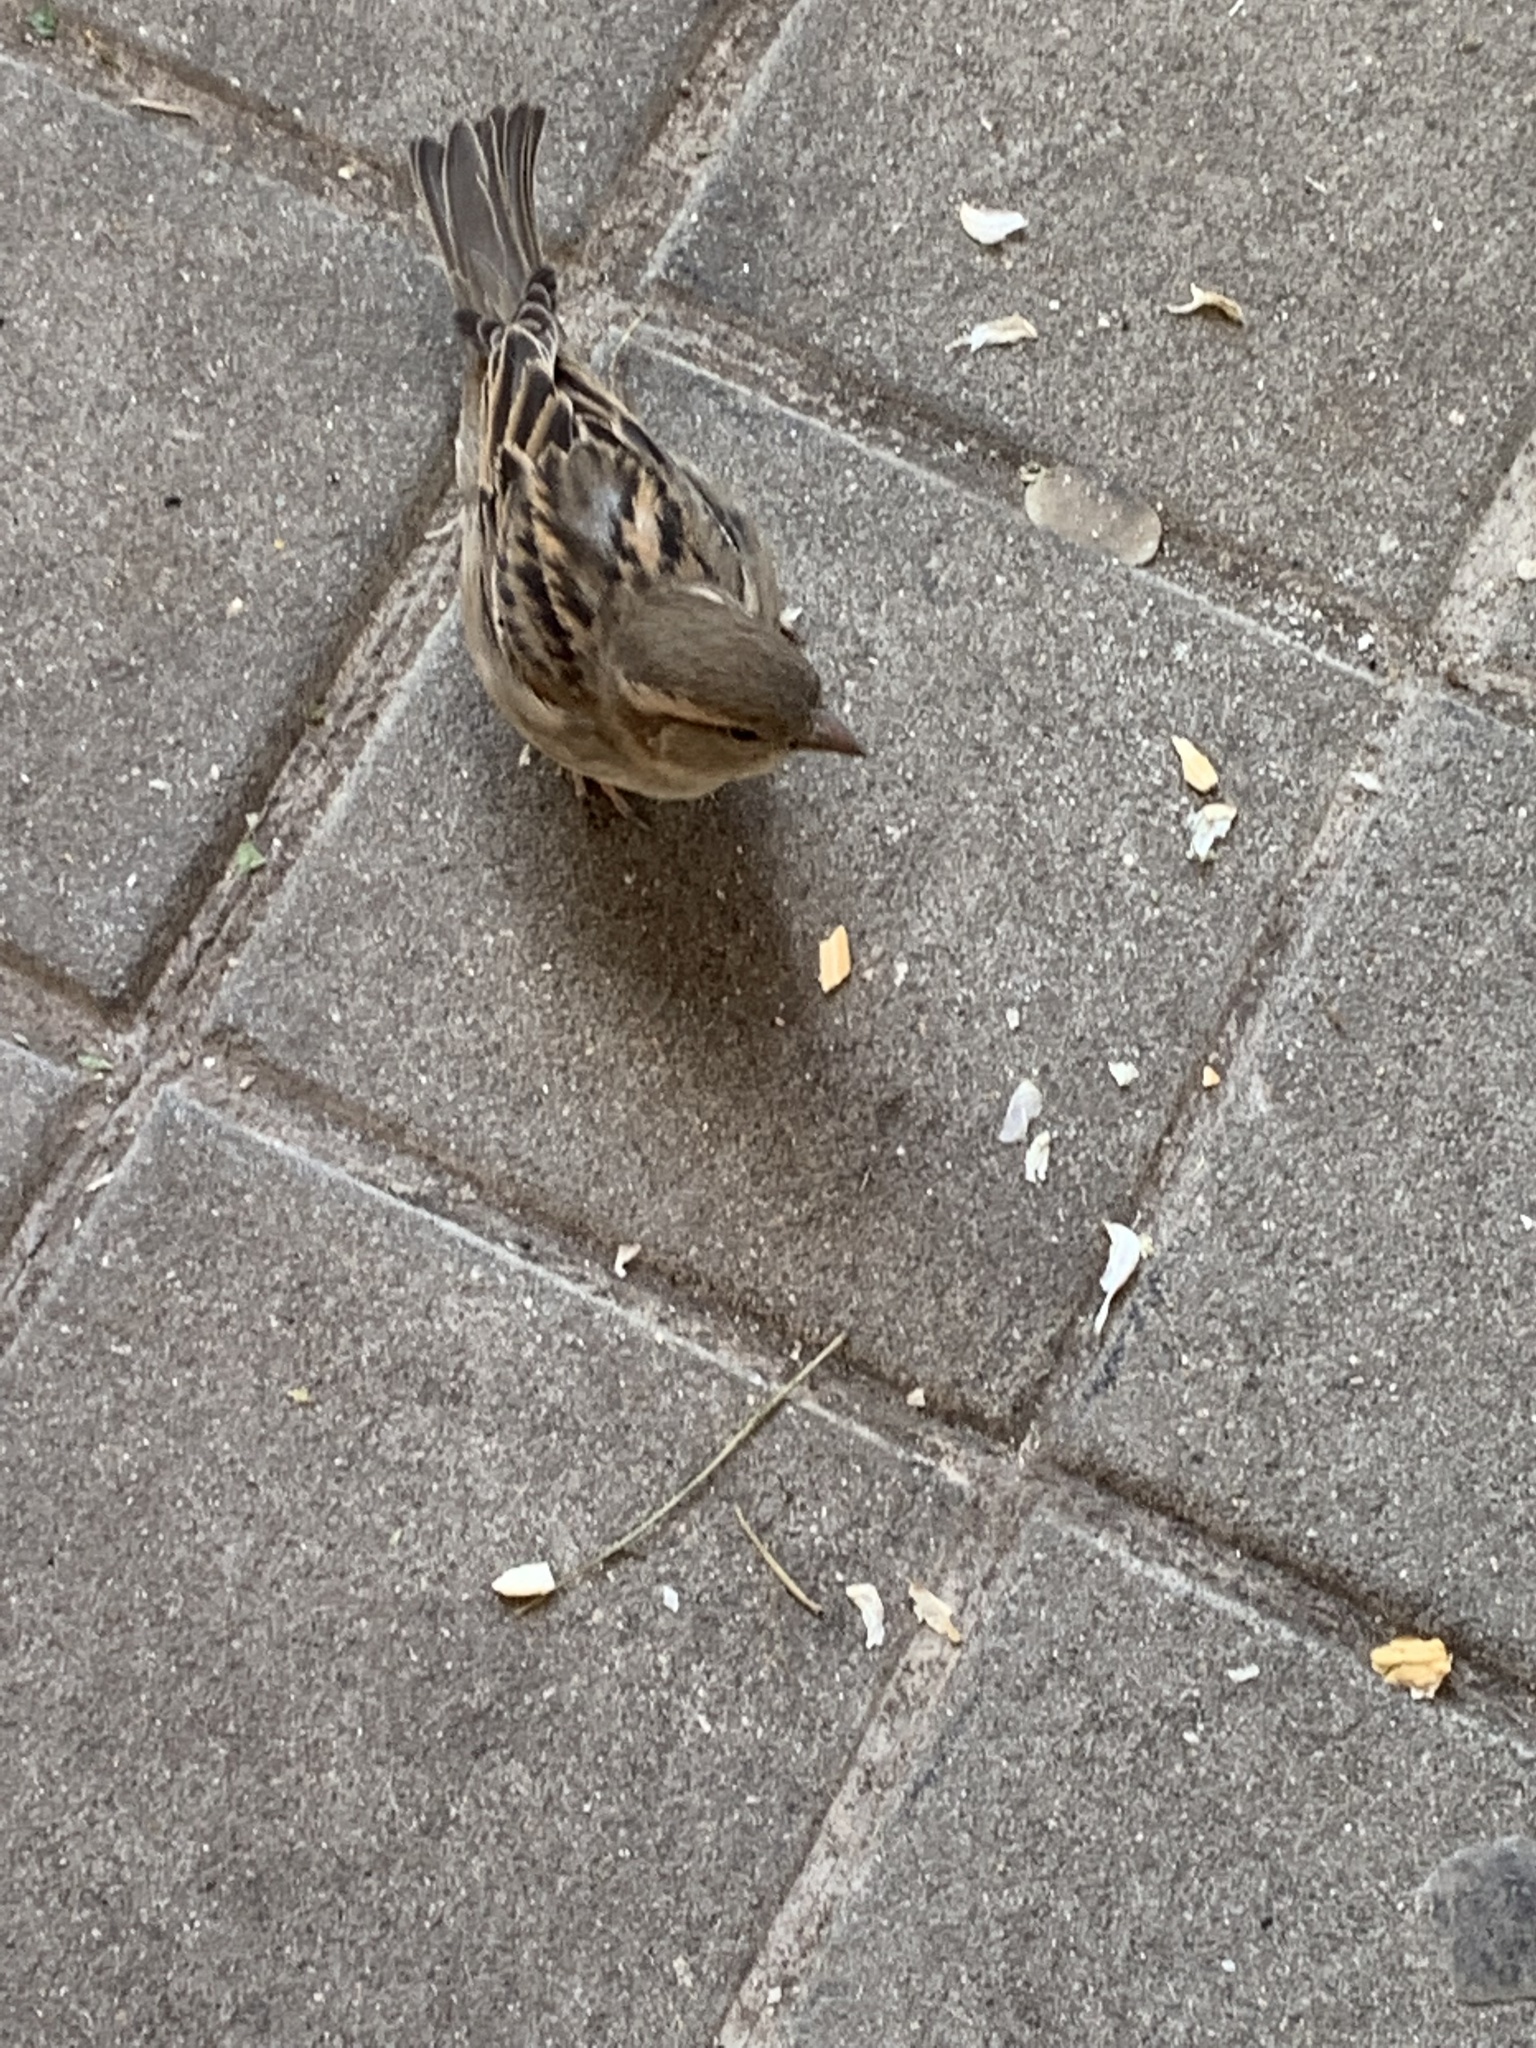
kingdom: Animalia
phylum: Chordata
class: Aves
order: Passeriformes
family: Passeridae
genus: Passer
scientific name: Passer domesticus
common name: House sparrow
